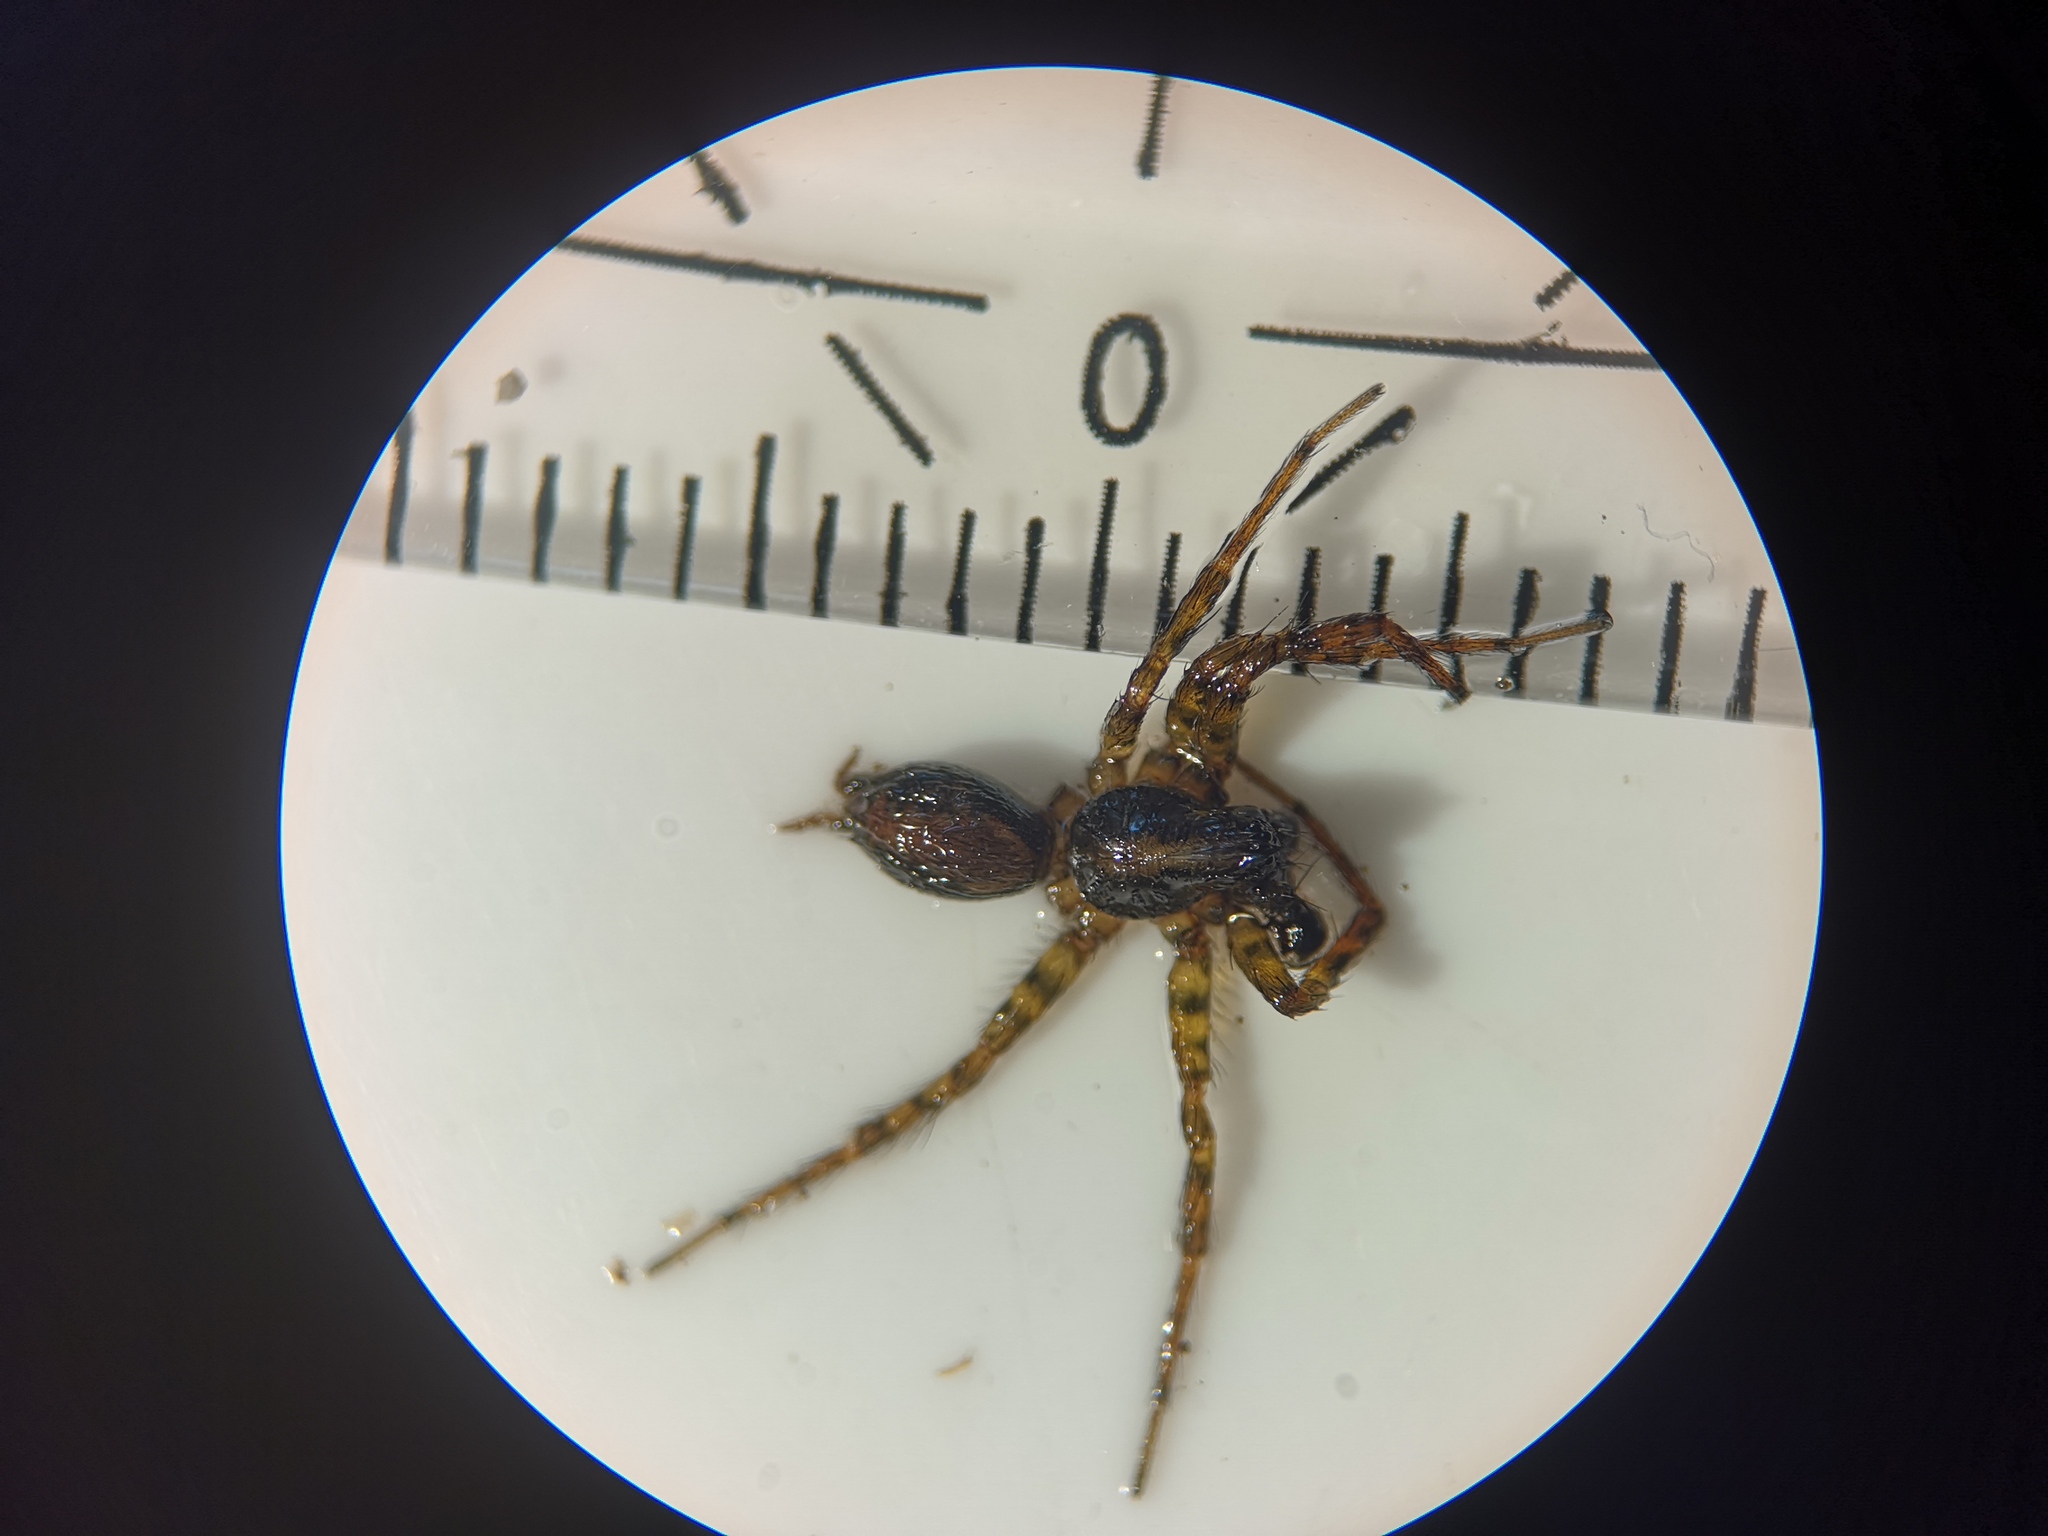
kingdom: Animalia
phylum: Arthropoda
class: Arachnida
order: Araneae
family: Agelenidae
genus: Textrix
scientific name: Textrix denticulata
